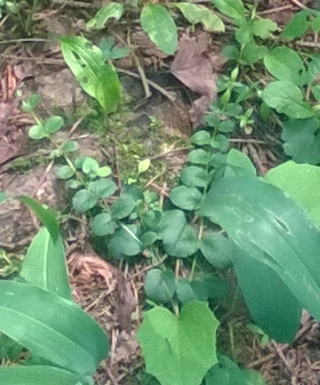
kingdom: Plantae
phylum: Tracheophyta
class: Magnoliopsida
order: Ericales
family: Primulaceae
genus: Lysimachia
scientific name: Lysimachia nummularia
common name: Moneywort
